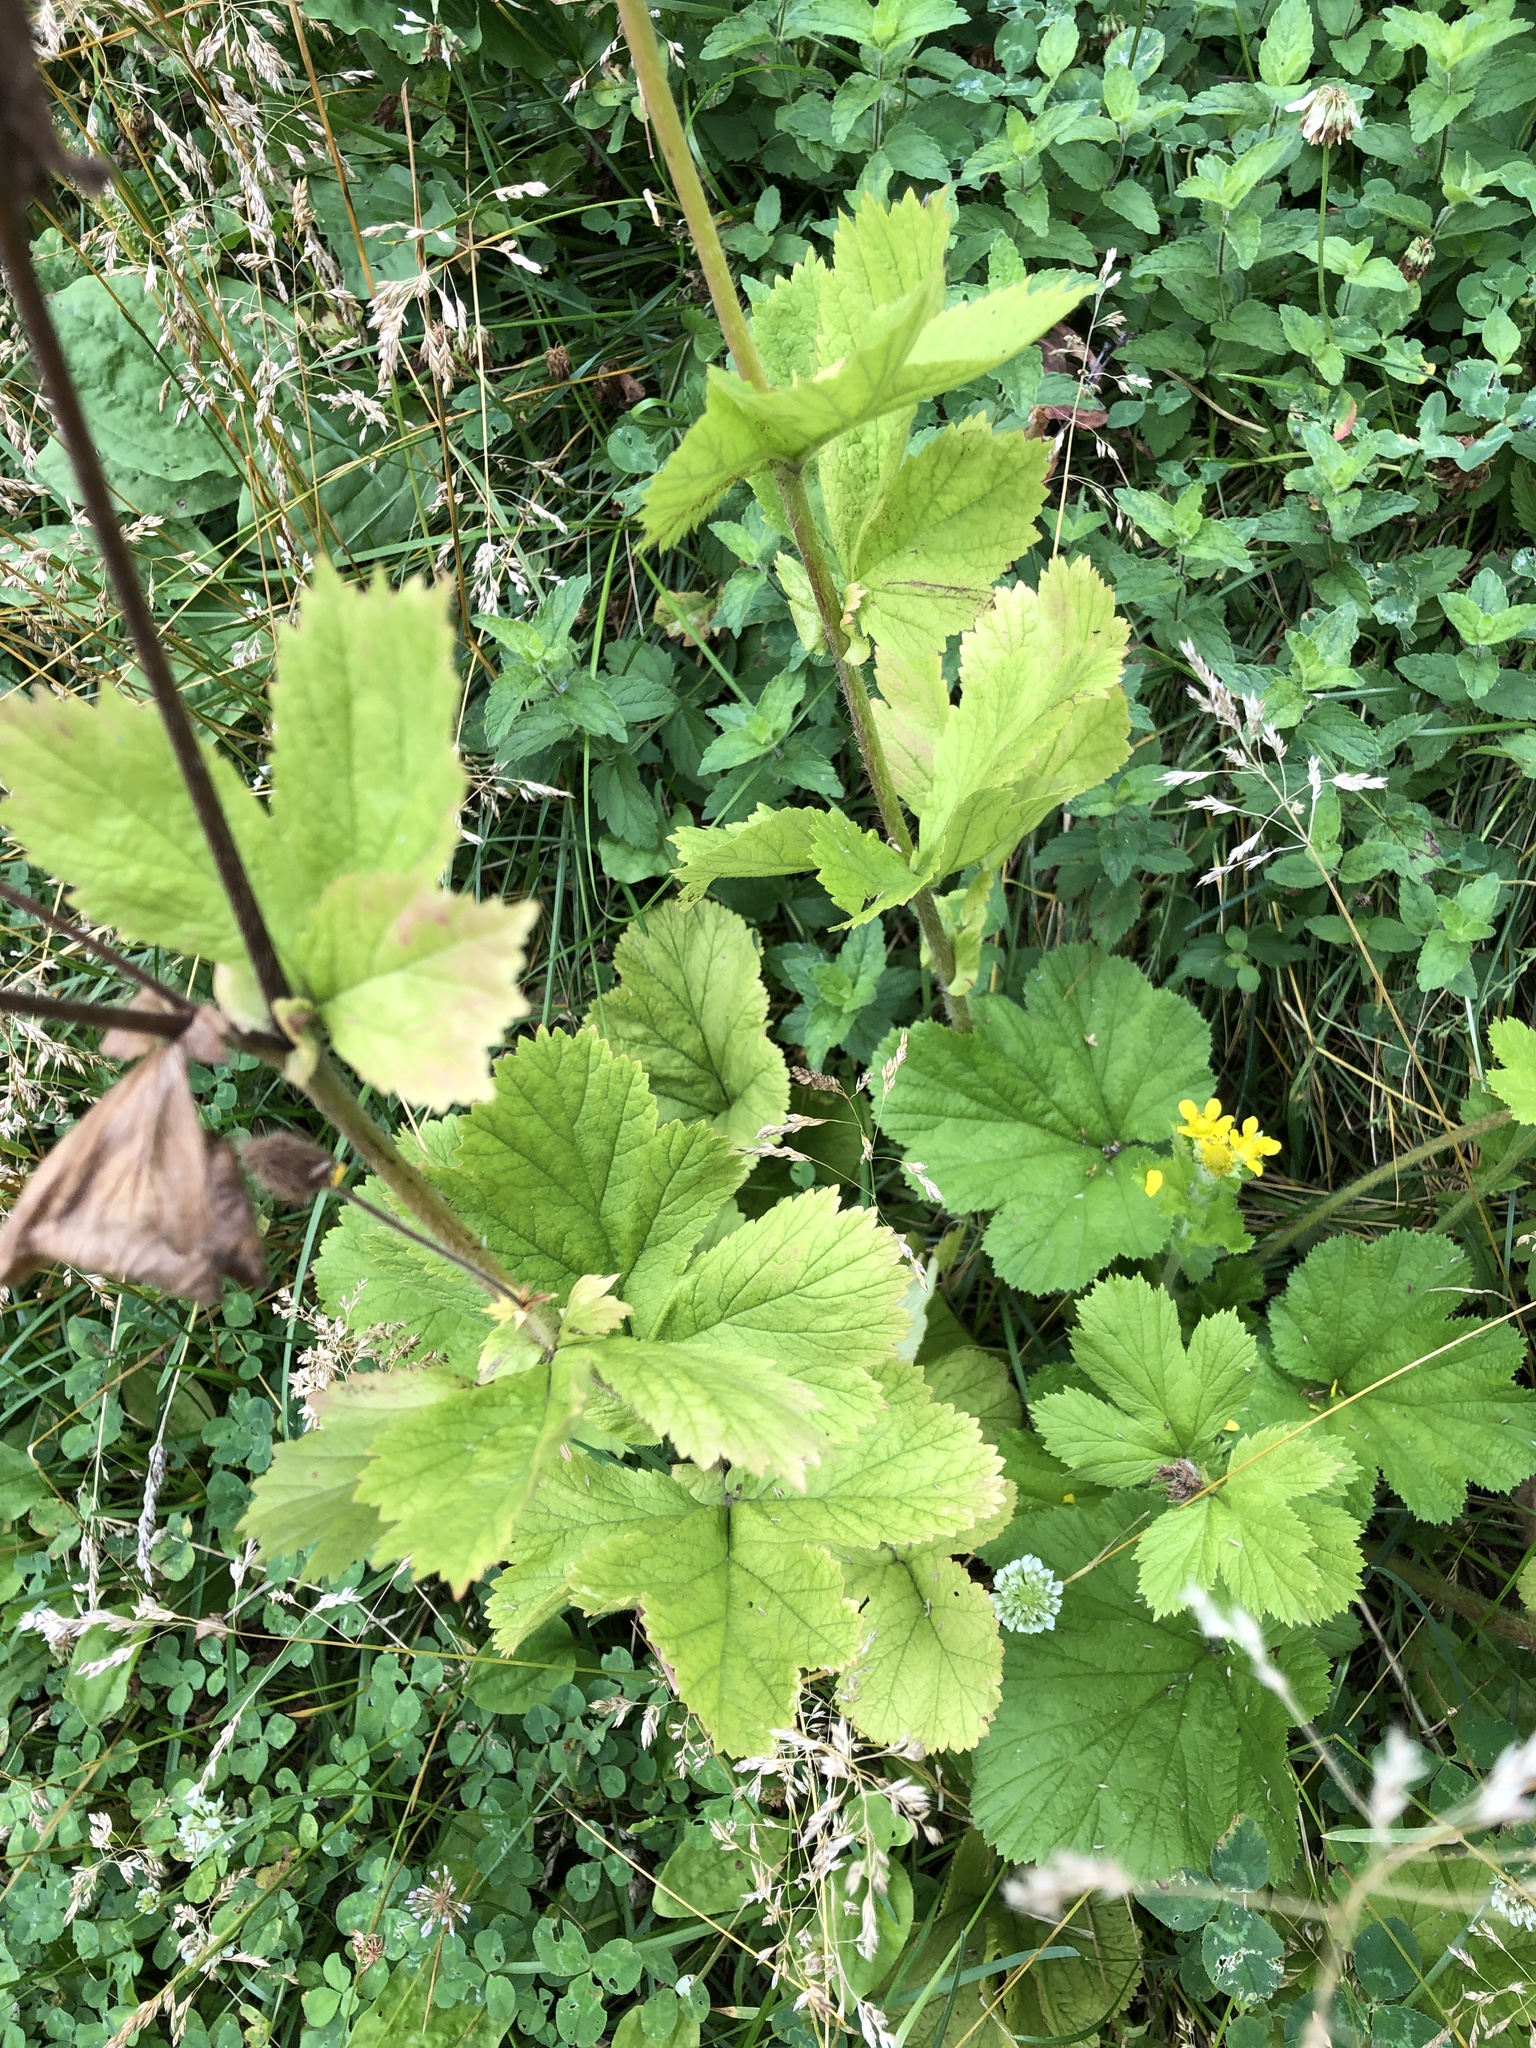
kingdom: Plantae
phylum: Tracheophyta
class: Magnoliopsida
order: Rosales
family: Rosaceae
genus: Geum
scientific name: Geum macrophyllum
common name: Large-leaved avens
